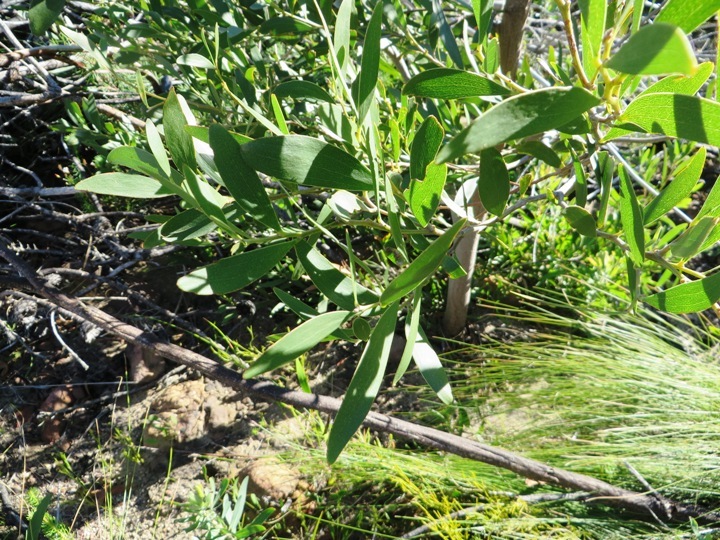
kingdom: Plantae
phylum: Tracheophyta
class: Magnoliopsida
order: Fabales
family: Fabaceae
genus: Acacia
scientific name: Acacia melanoxylon
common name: Blackwood
